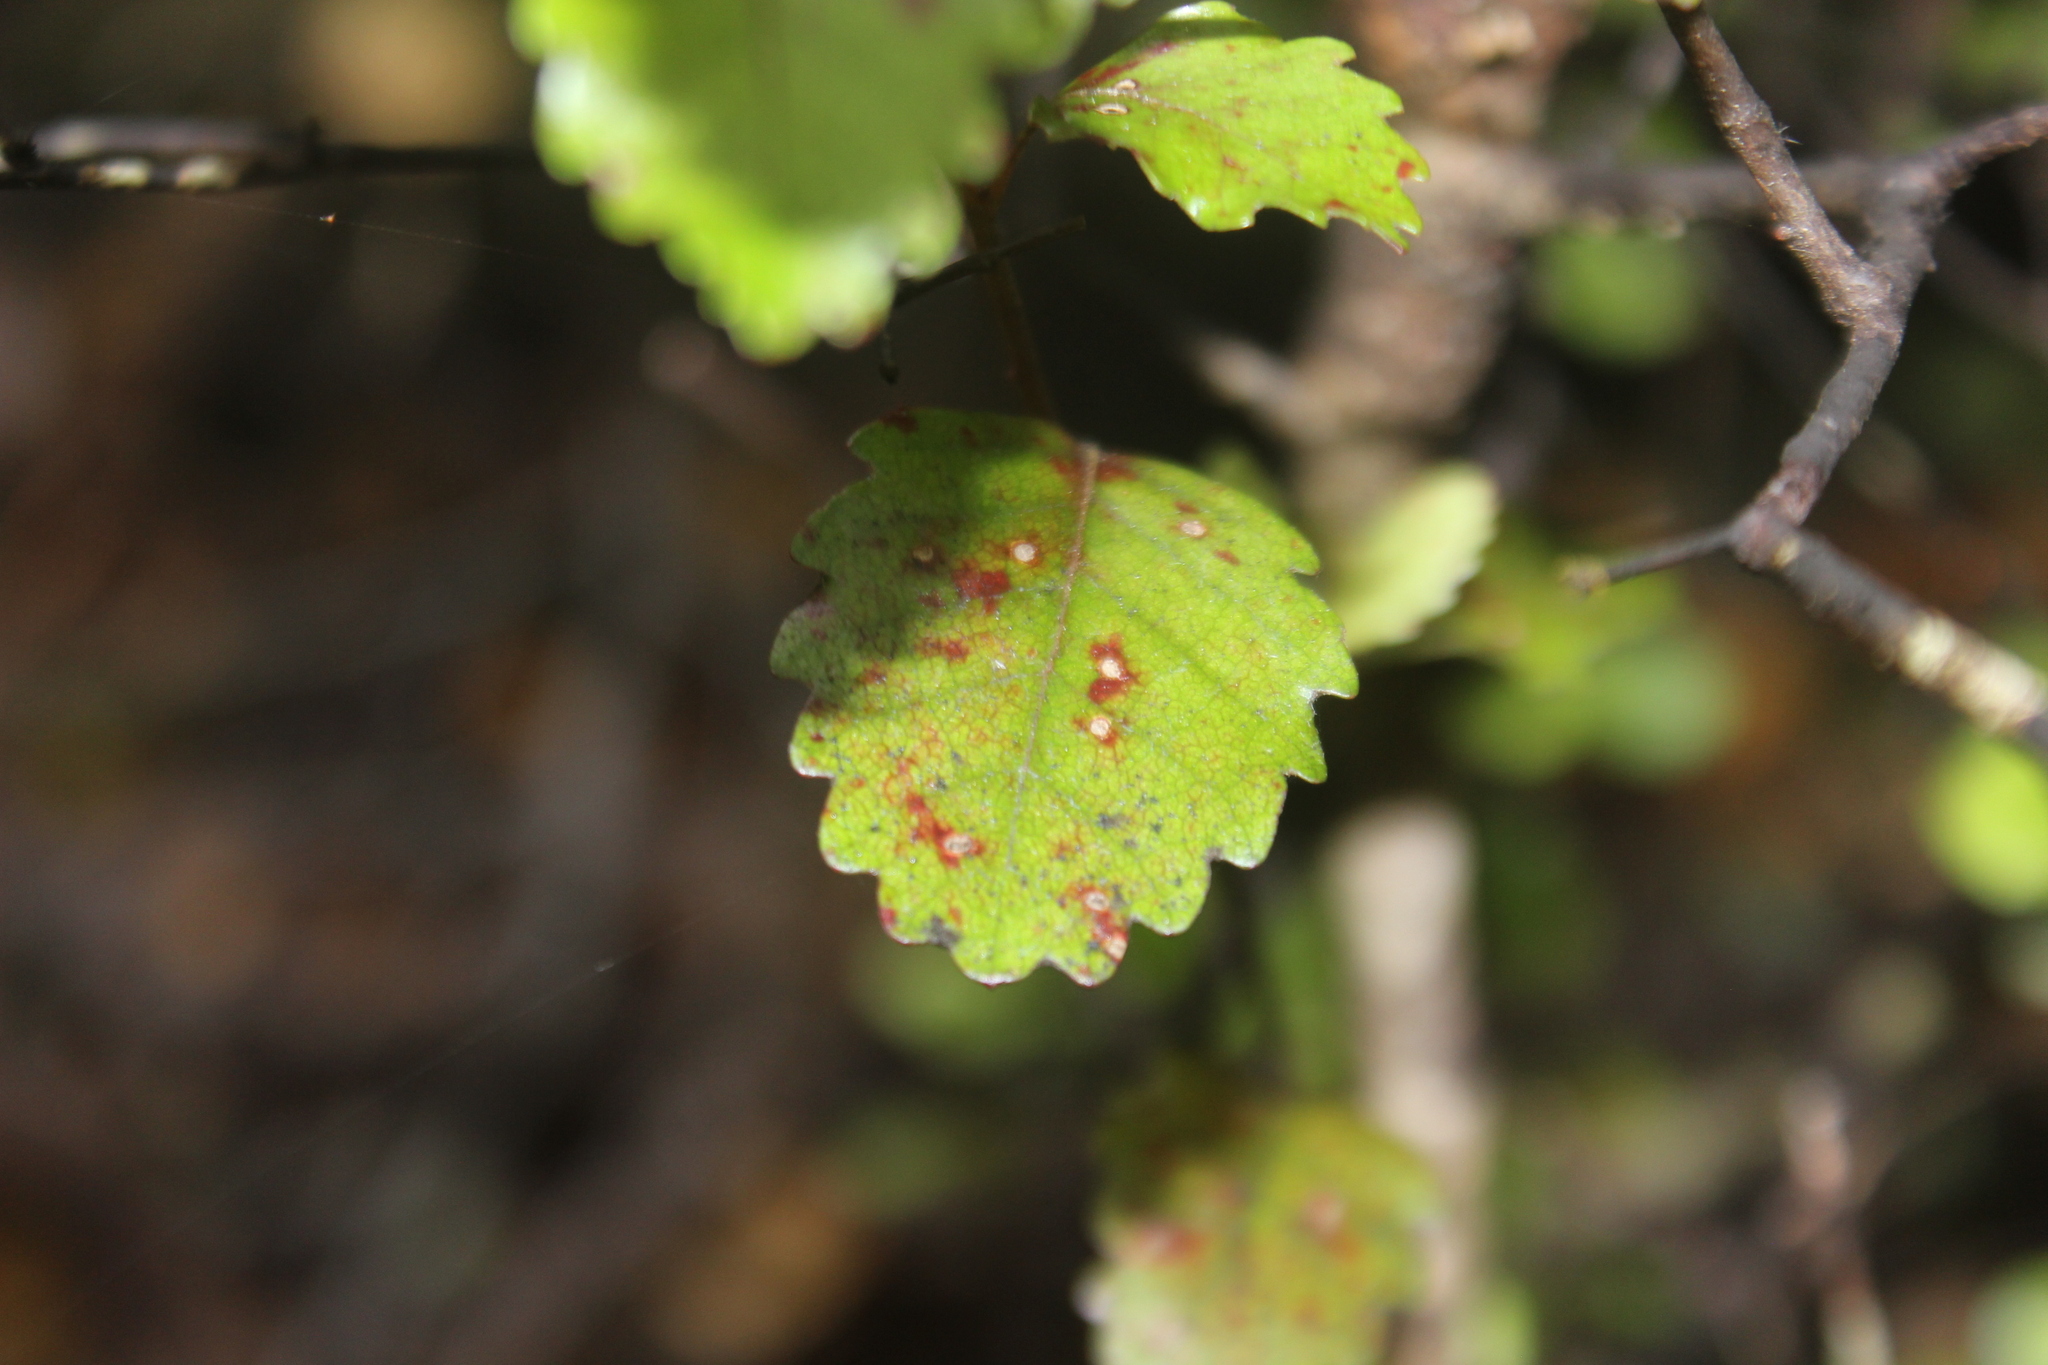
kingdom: Plantae
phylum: Tracheophyta
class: Magnoliopsida
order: Fagales
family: Nothofagaceae
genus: Nothofagus
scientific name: Nothofagus truncata
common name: Hard beech
